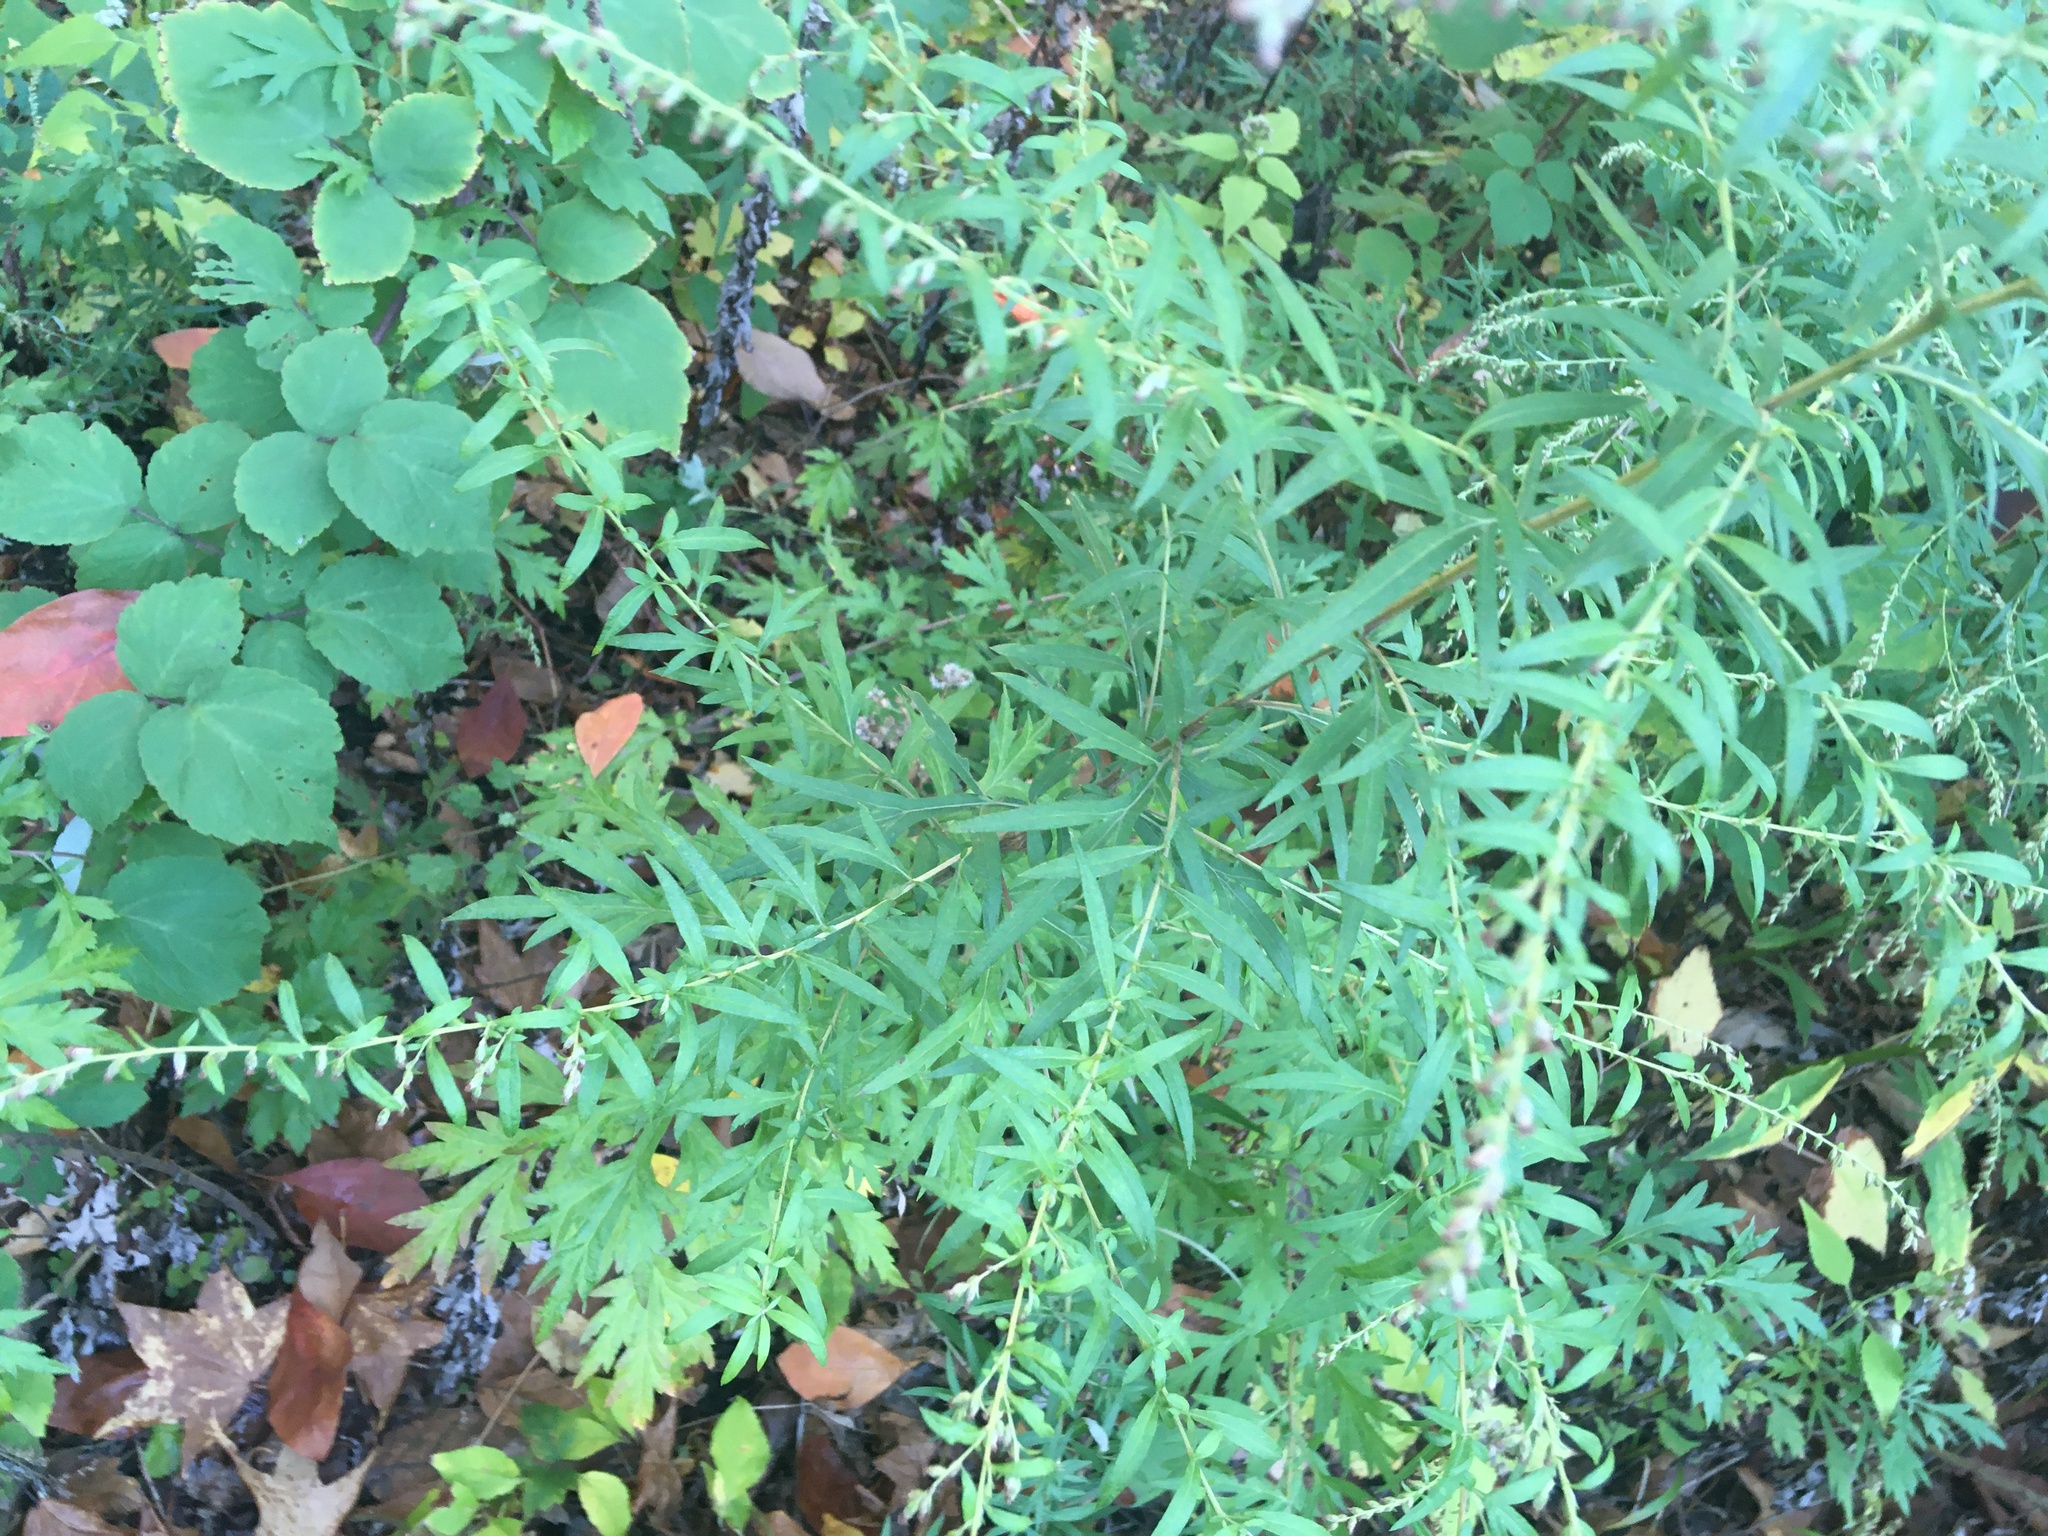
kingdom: Plantae
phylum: Tracheophyta
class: Magnoliopsida
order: Asterales
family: Asteraceae
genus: Artemisia
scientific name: Artemisia vulgaris
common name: Mugwort
